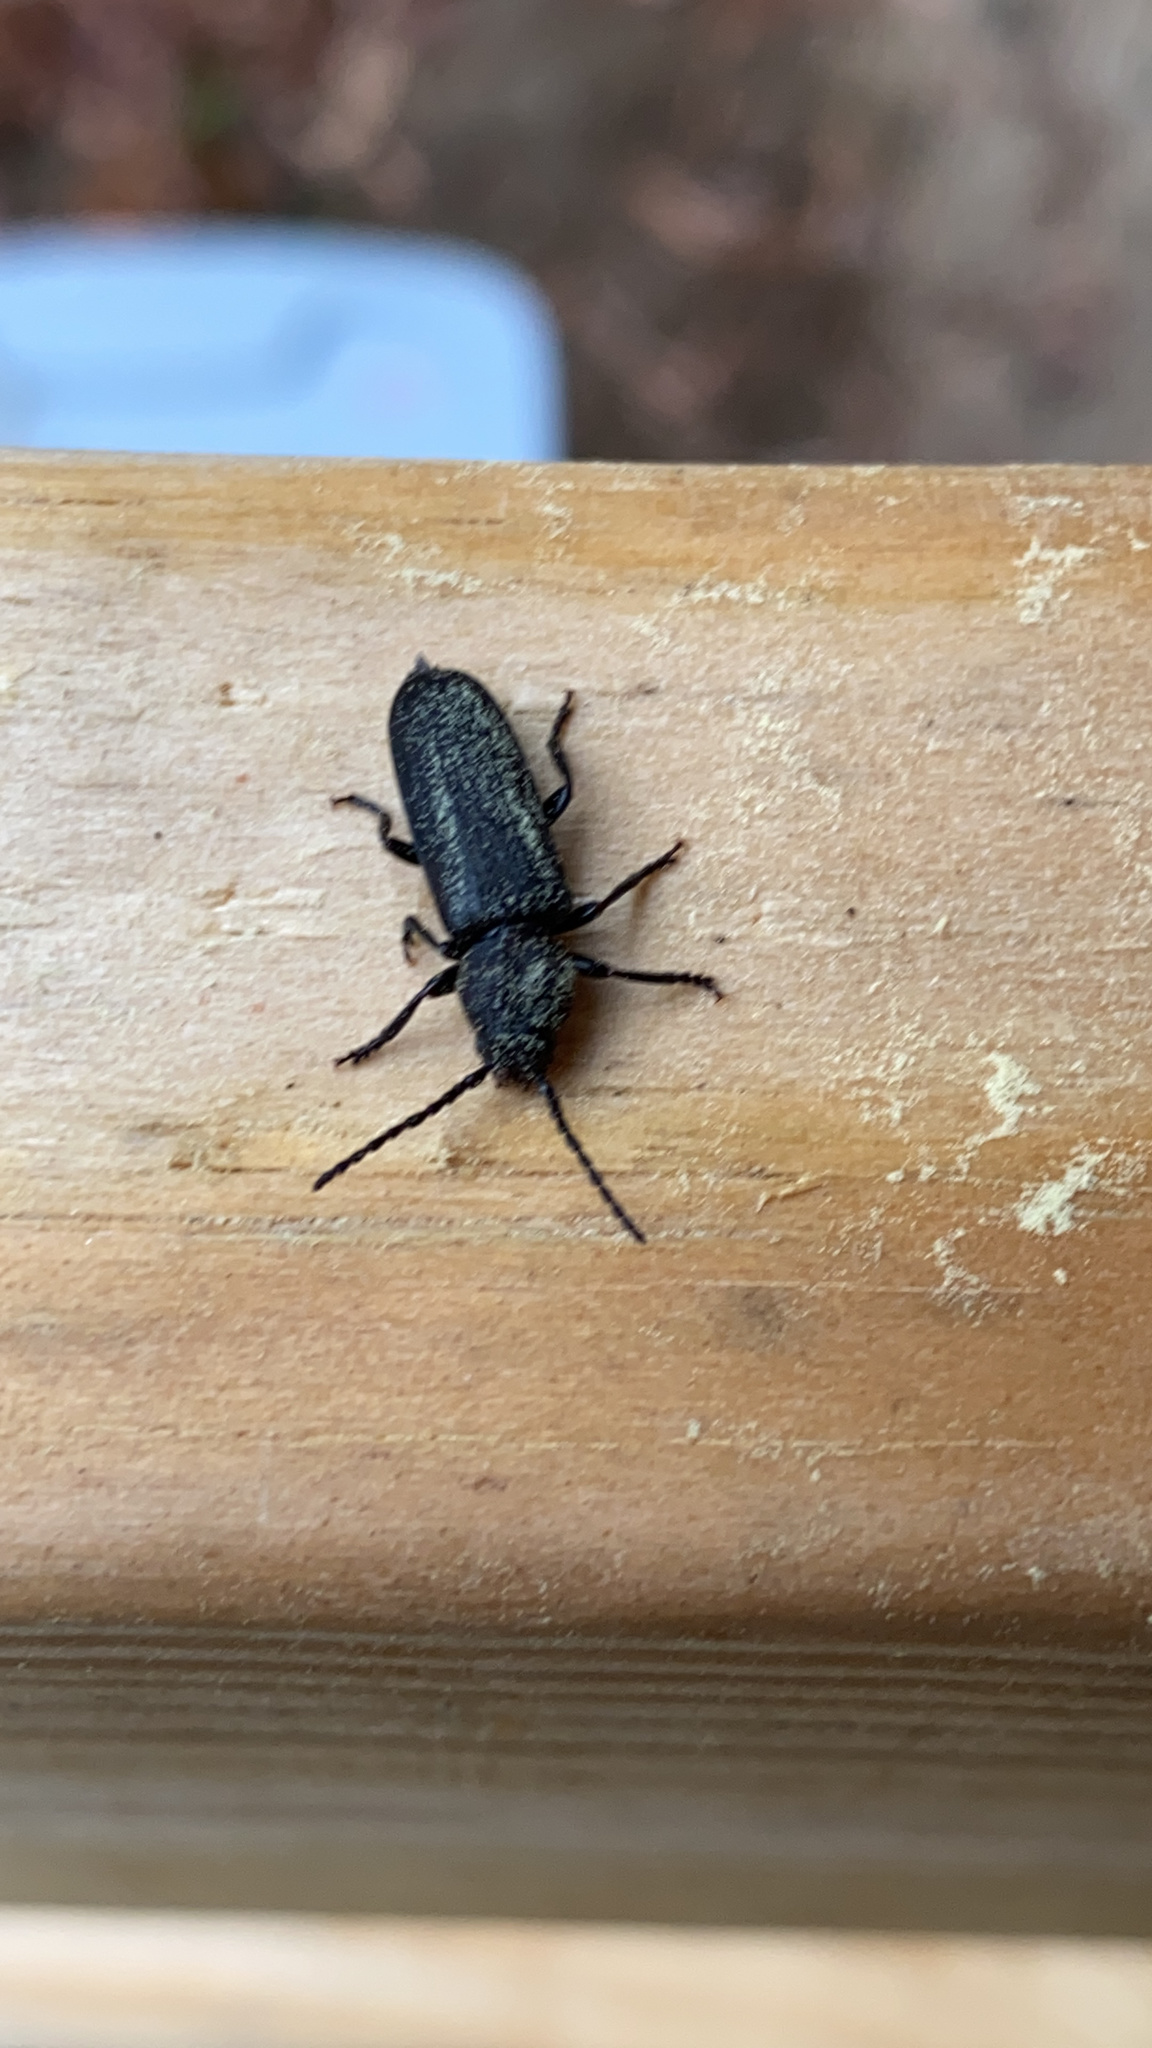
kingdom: Animalia
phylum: Arthropoda
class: Insecta
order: Coleoptera
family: Cerambycidae
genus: Asemum
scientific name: Asemum striatum
